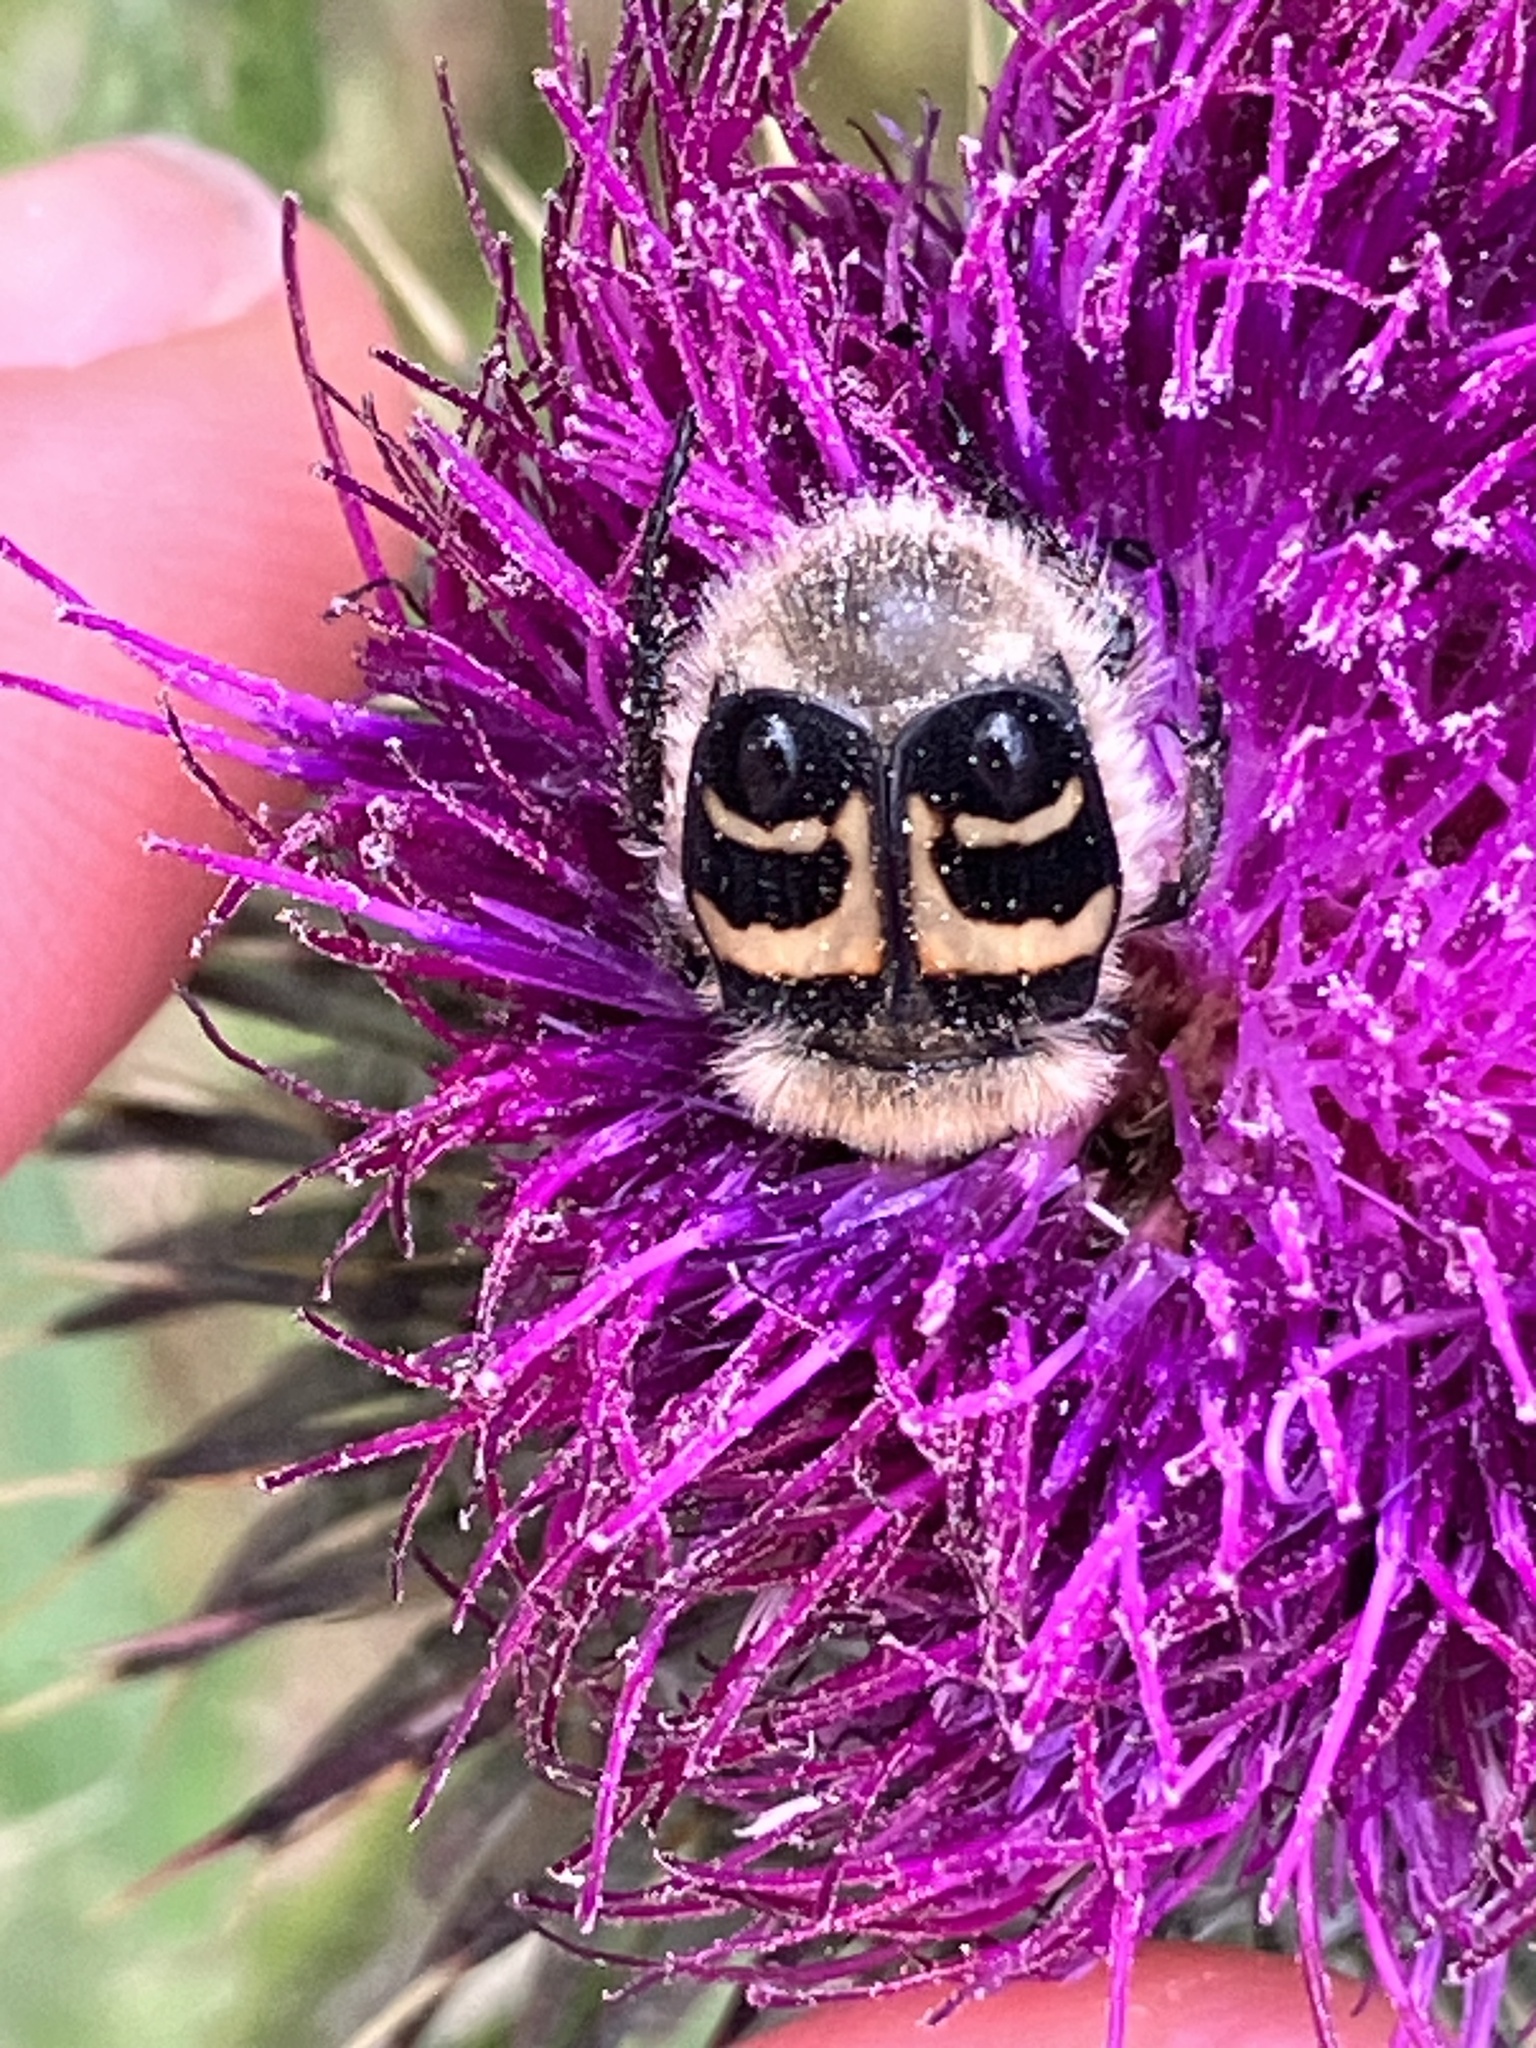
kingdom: Animalia
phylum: Arthropoda
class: Insecta
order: Coleoptera
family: Scarabaeidae
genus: Trichius
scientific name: Trichius fasciatus
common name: Bee beetle
